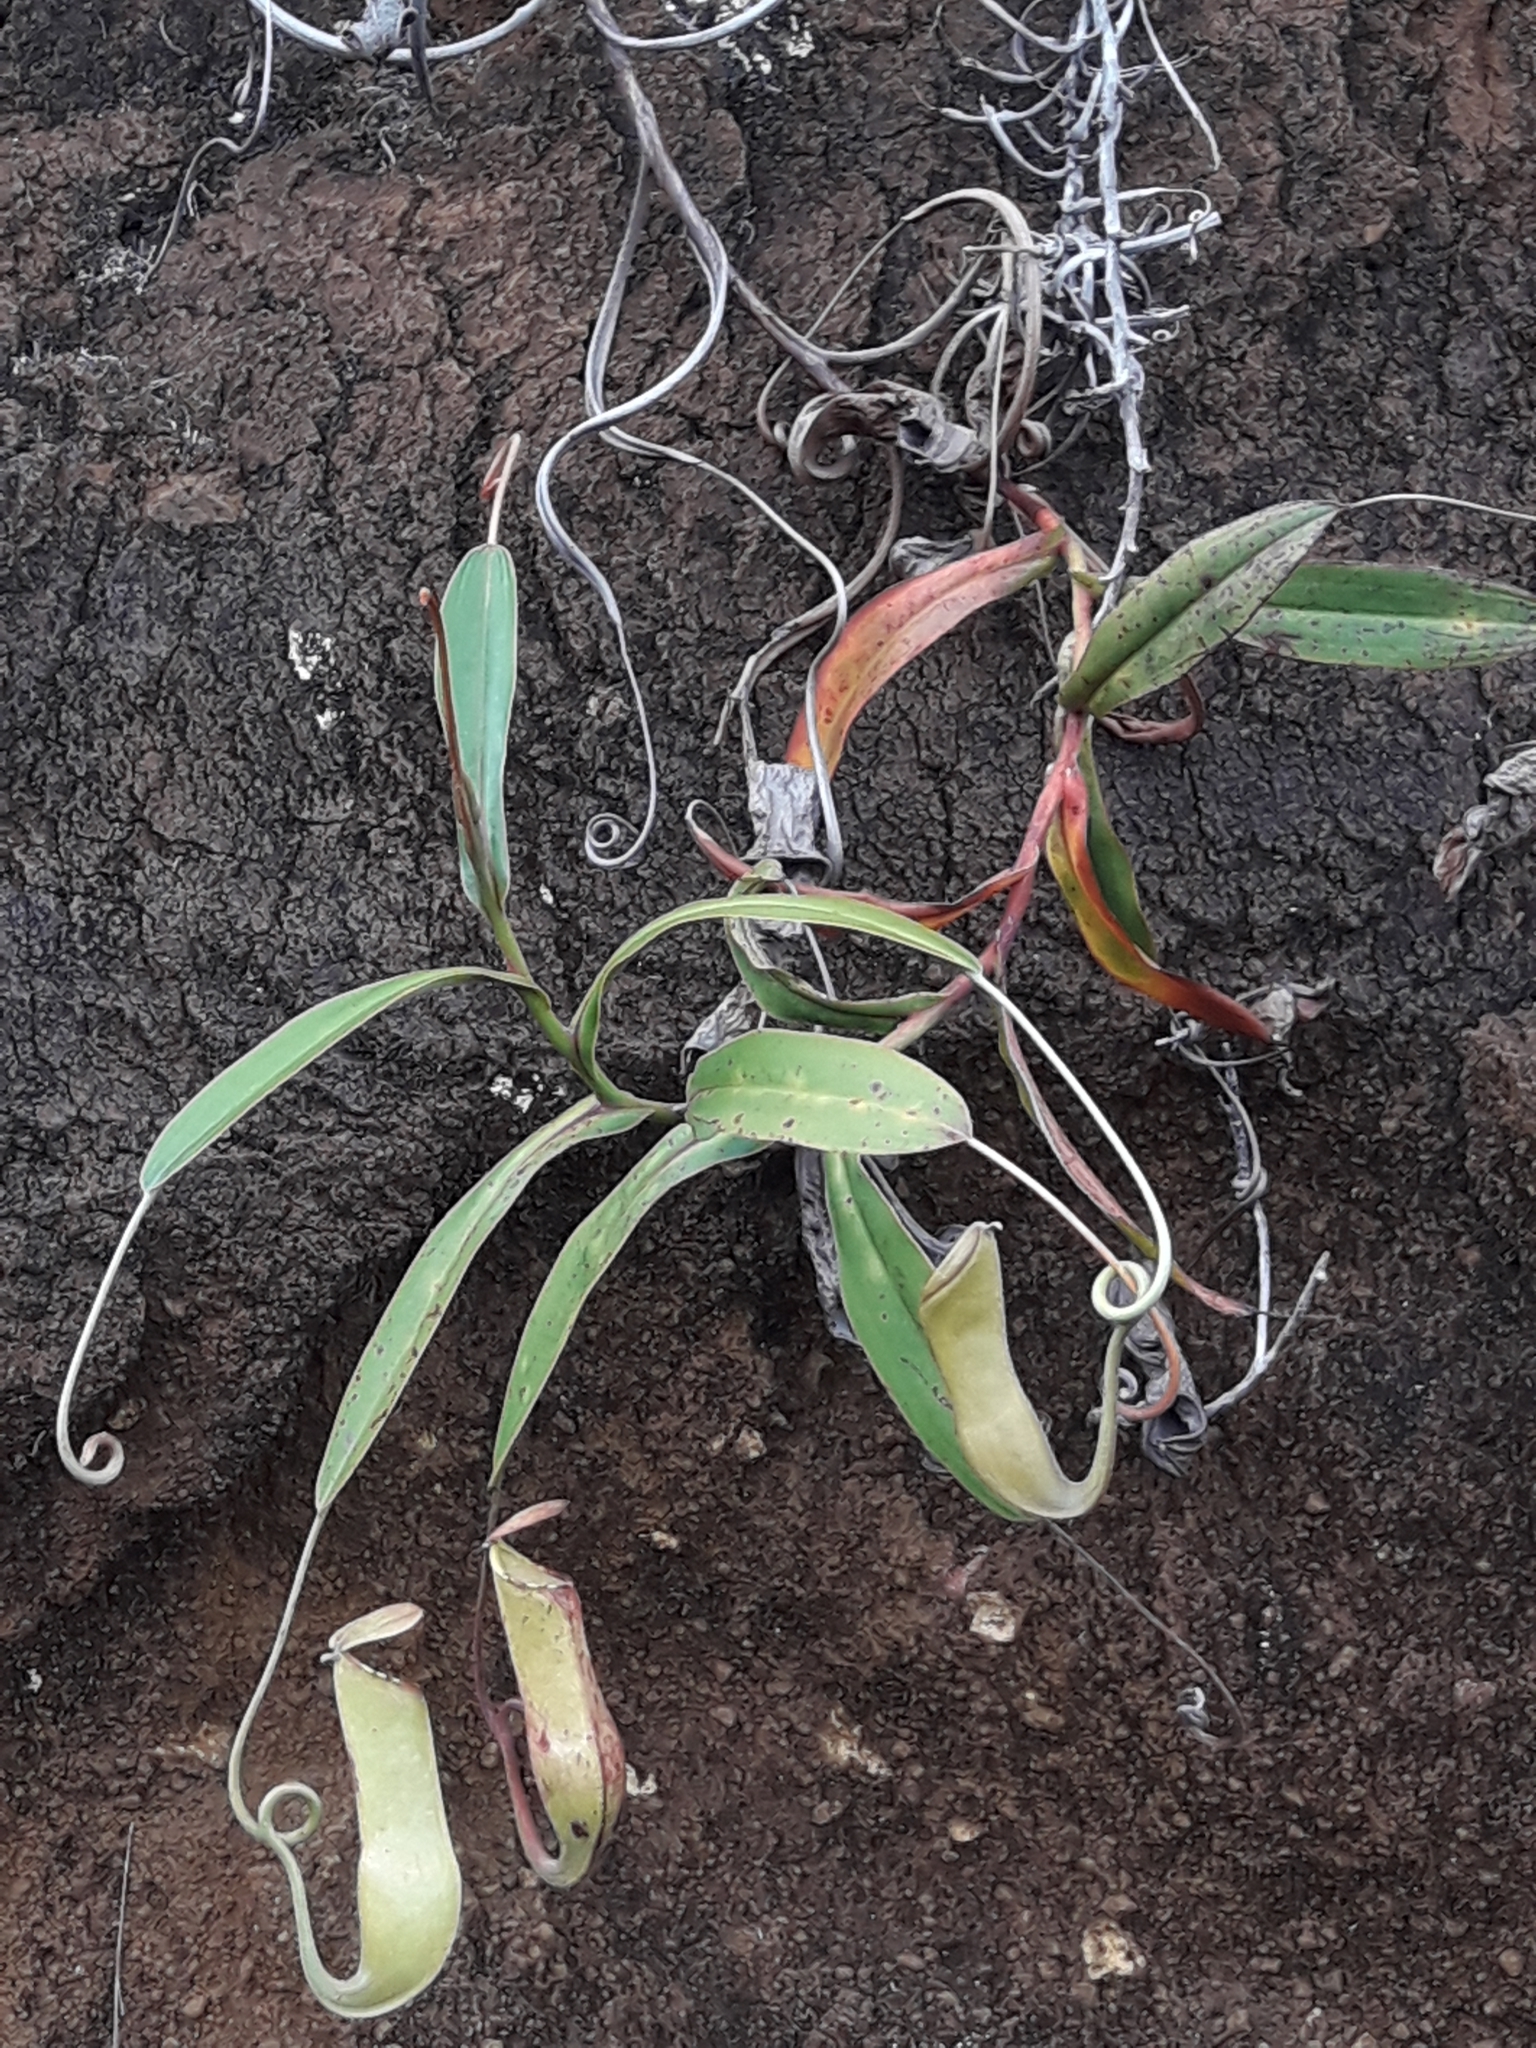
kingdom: Plantae
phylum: Tracheophyta
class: Magnoliopsida
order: Caryophyllales
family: Nepenthaceae
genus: Nepenthes
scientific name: Nepenthes vieillardii
